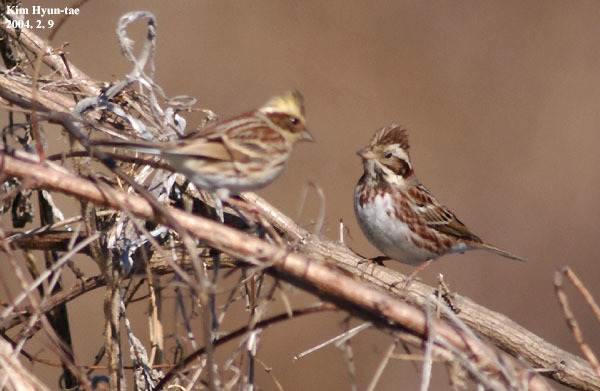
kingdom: Animalia
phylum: Chordata
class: Aves
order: Passeriformes
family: Emberizidae
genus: Emberiza
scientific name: Emberiza rustica
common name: Rustic bunting
